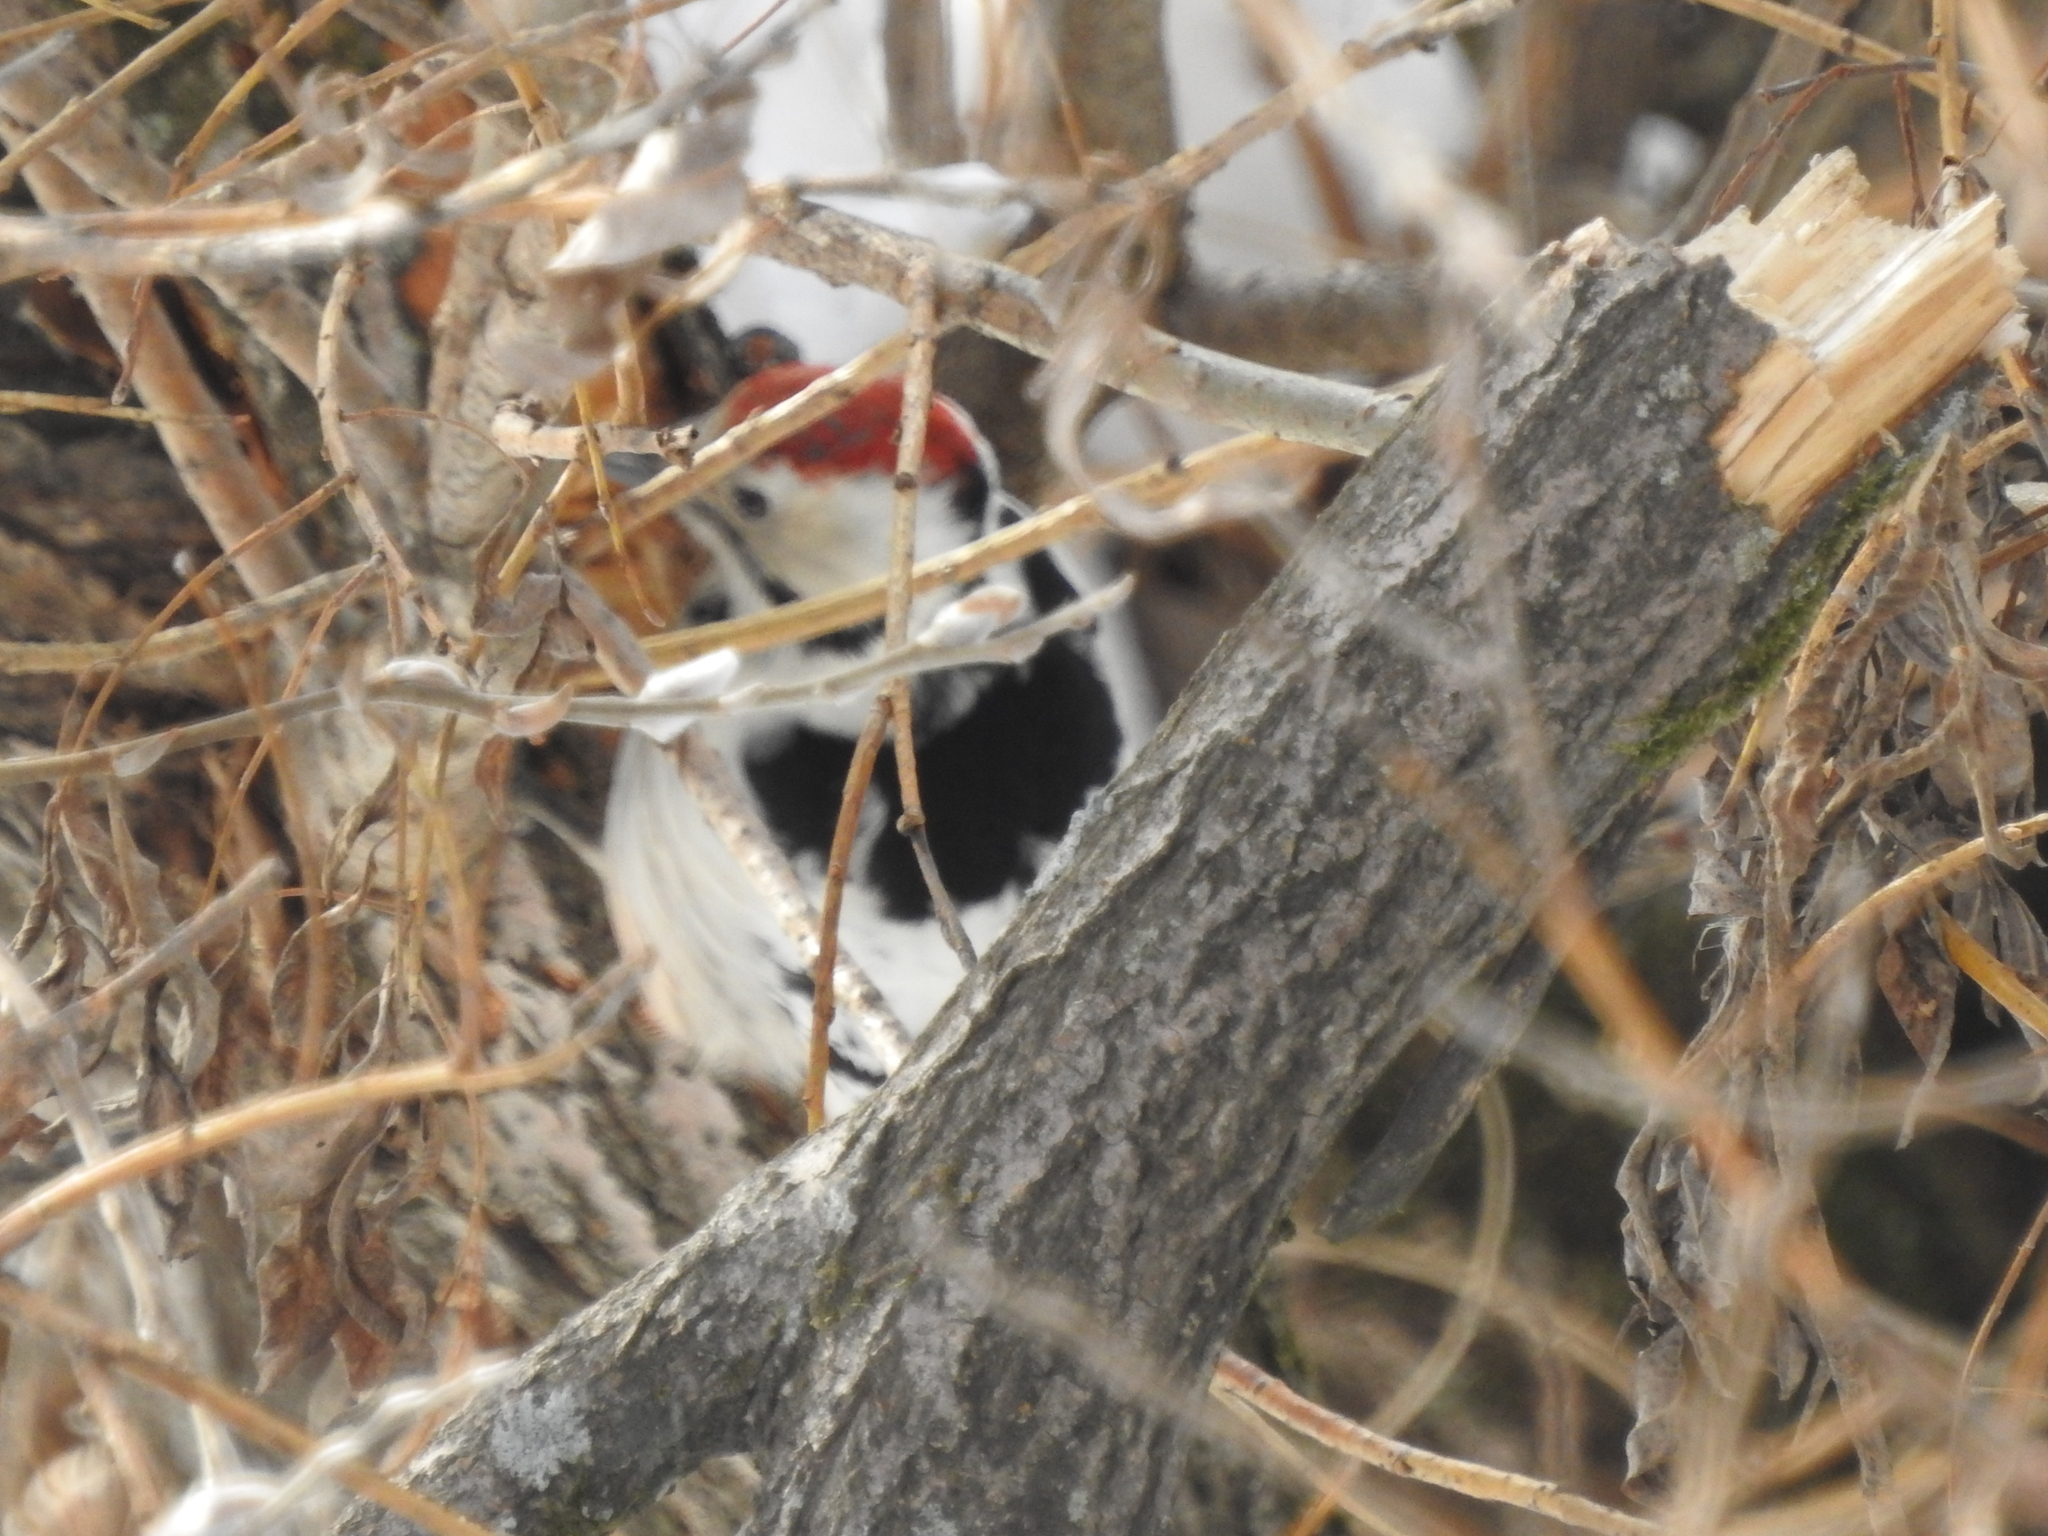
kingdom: Animalia
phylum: Chordata
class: Aves
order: Piciformes
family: Picidae
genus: Dendrocopos
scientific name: Dendrocopos leucotos
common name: White-backed woodpecker
